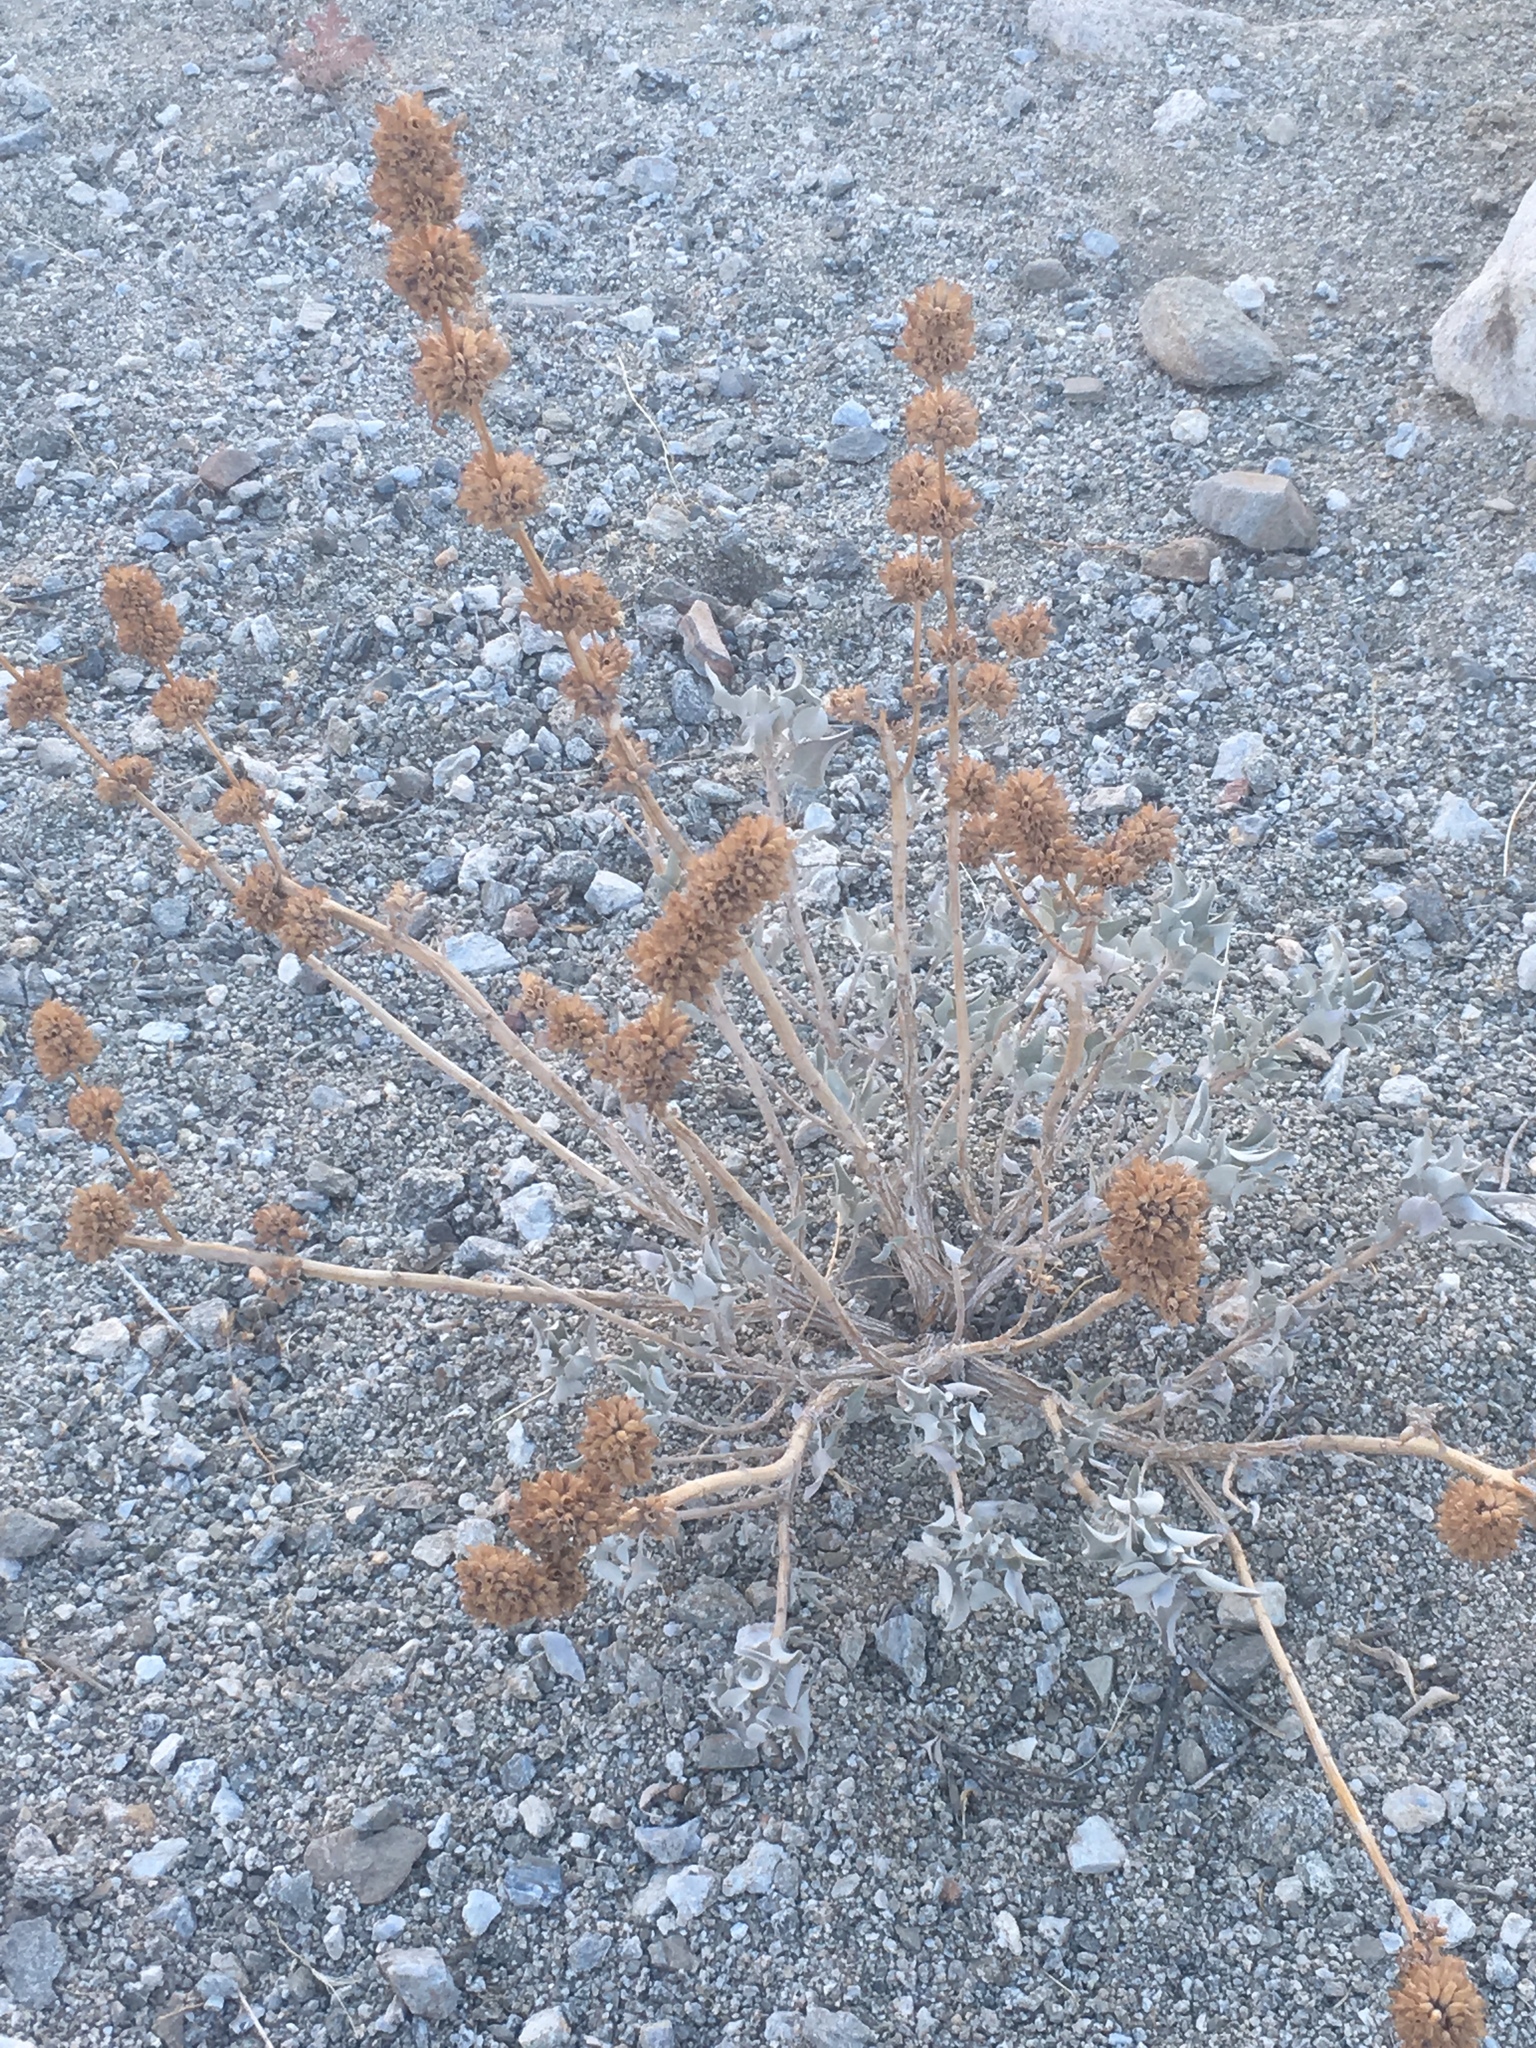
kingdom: Plantae
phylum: Tracheophyta
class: Magnoliopsida
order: Lamiales
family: Lamiaceae
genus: Salvia
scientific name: Salvia vaseyi
